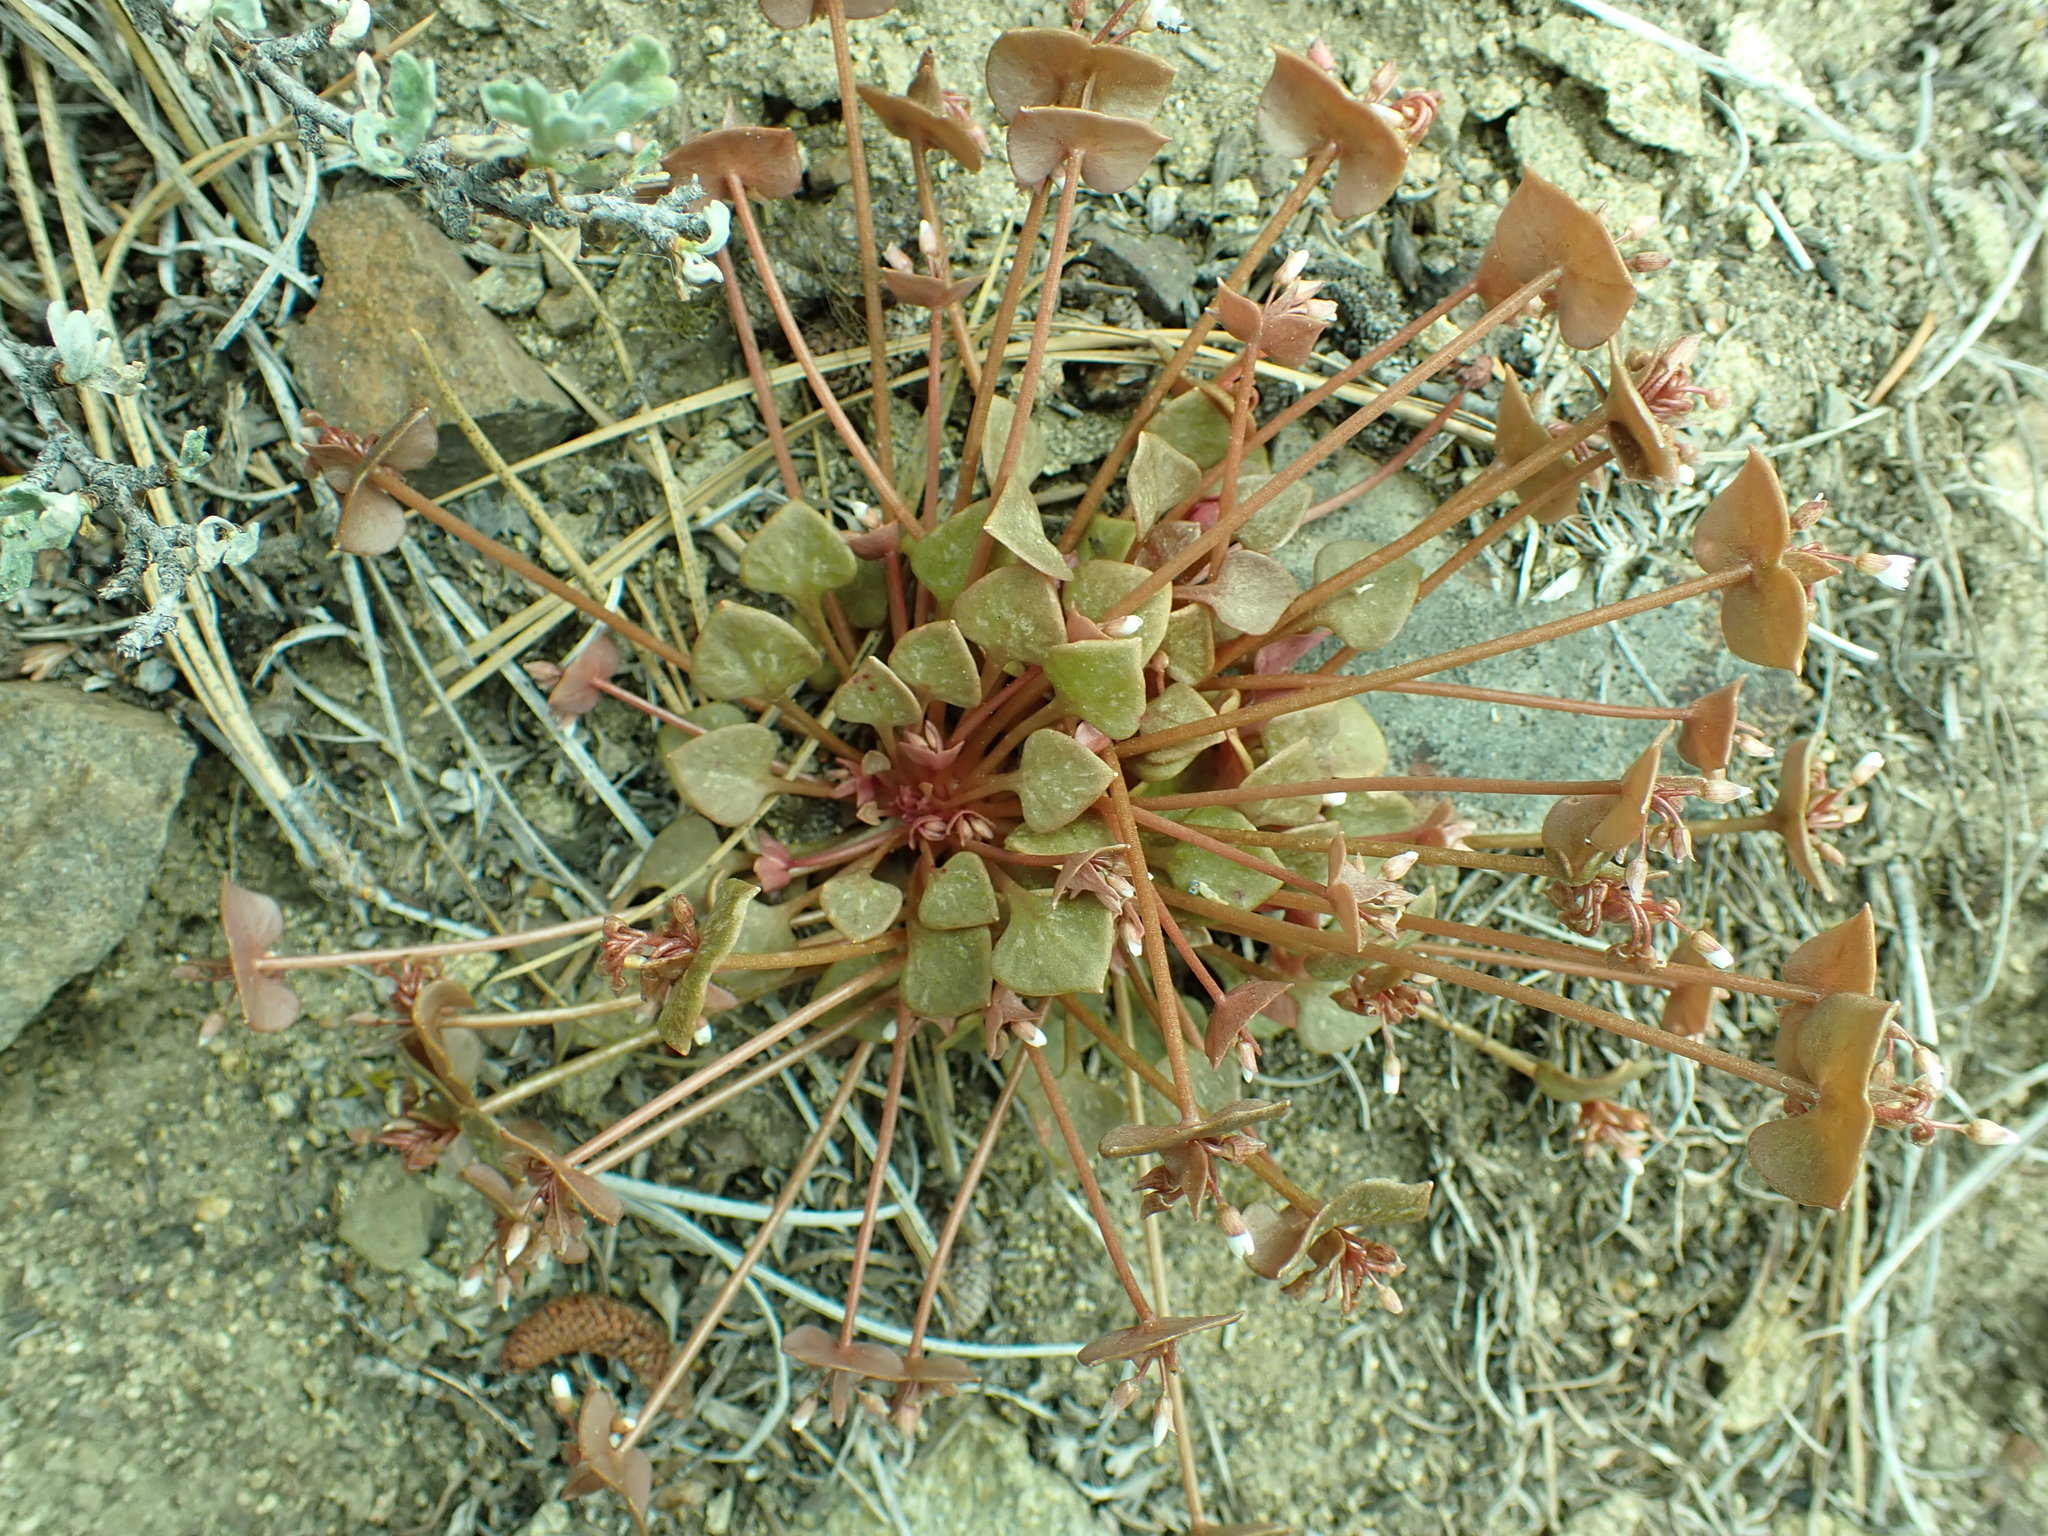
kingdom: Plantae
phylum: Tracheophyta
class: Magnoliopsida
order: Caryophyllales
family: Montiaceae
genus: Claytonia
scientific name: Claytonia rubra
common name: Erubescent miner's-lettuce
